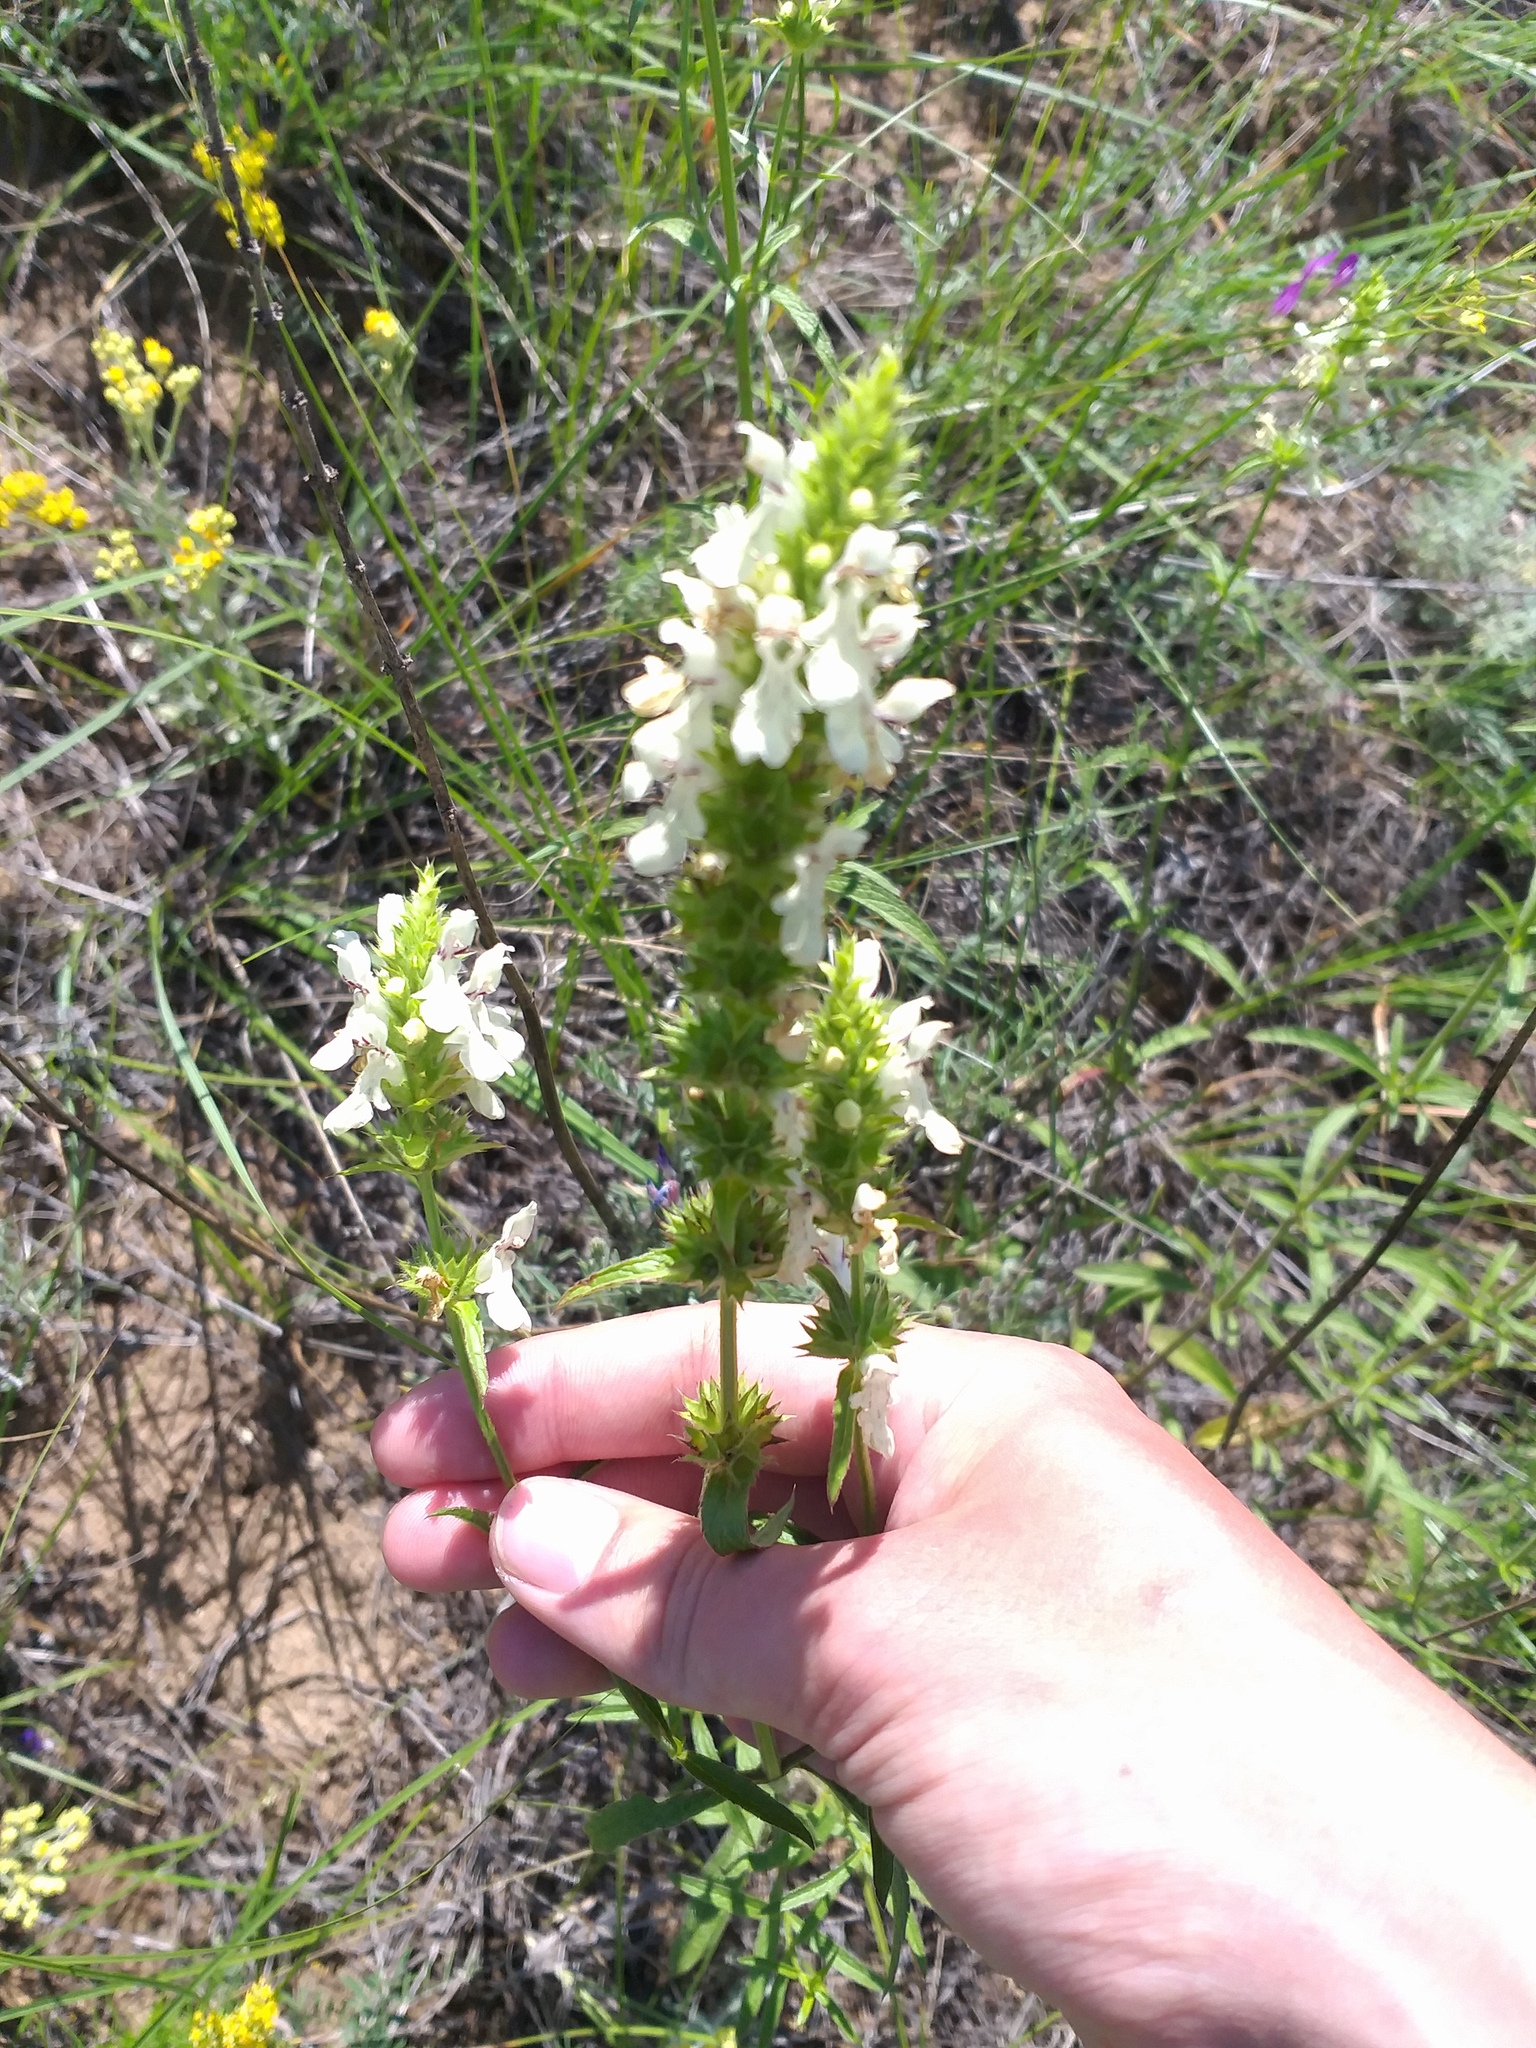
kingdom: Plantae
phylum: Tracheophyta
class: Magnoliopsida
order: Lamiales
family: Lamiaceae
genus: Stachys
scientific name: Stachys recta
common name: Perennial yellow-woundwort
